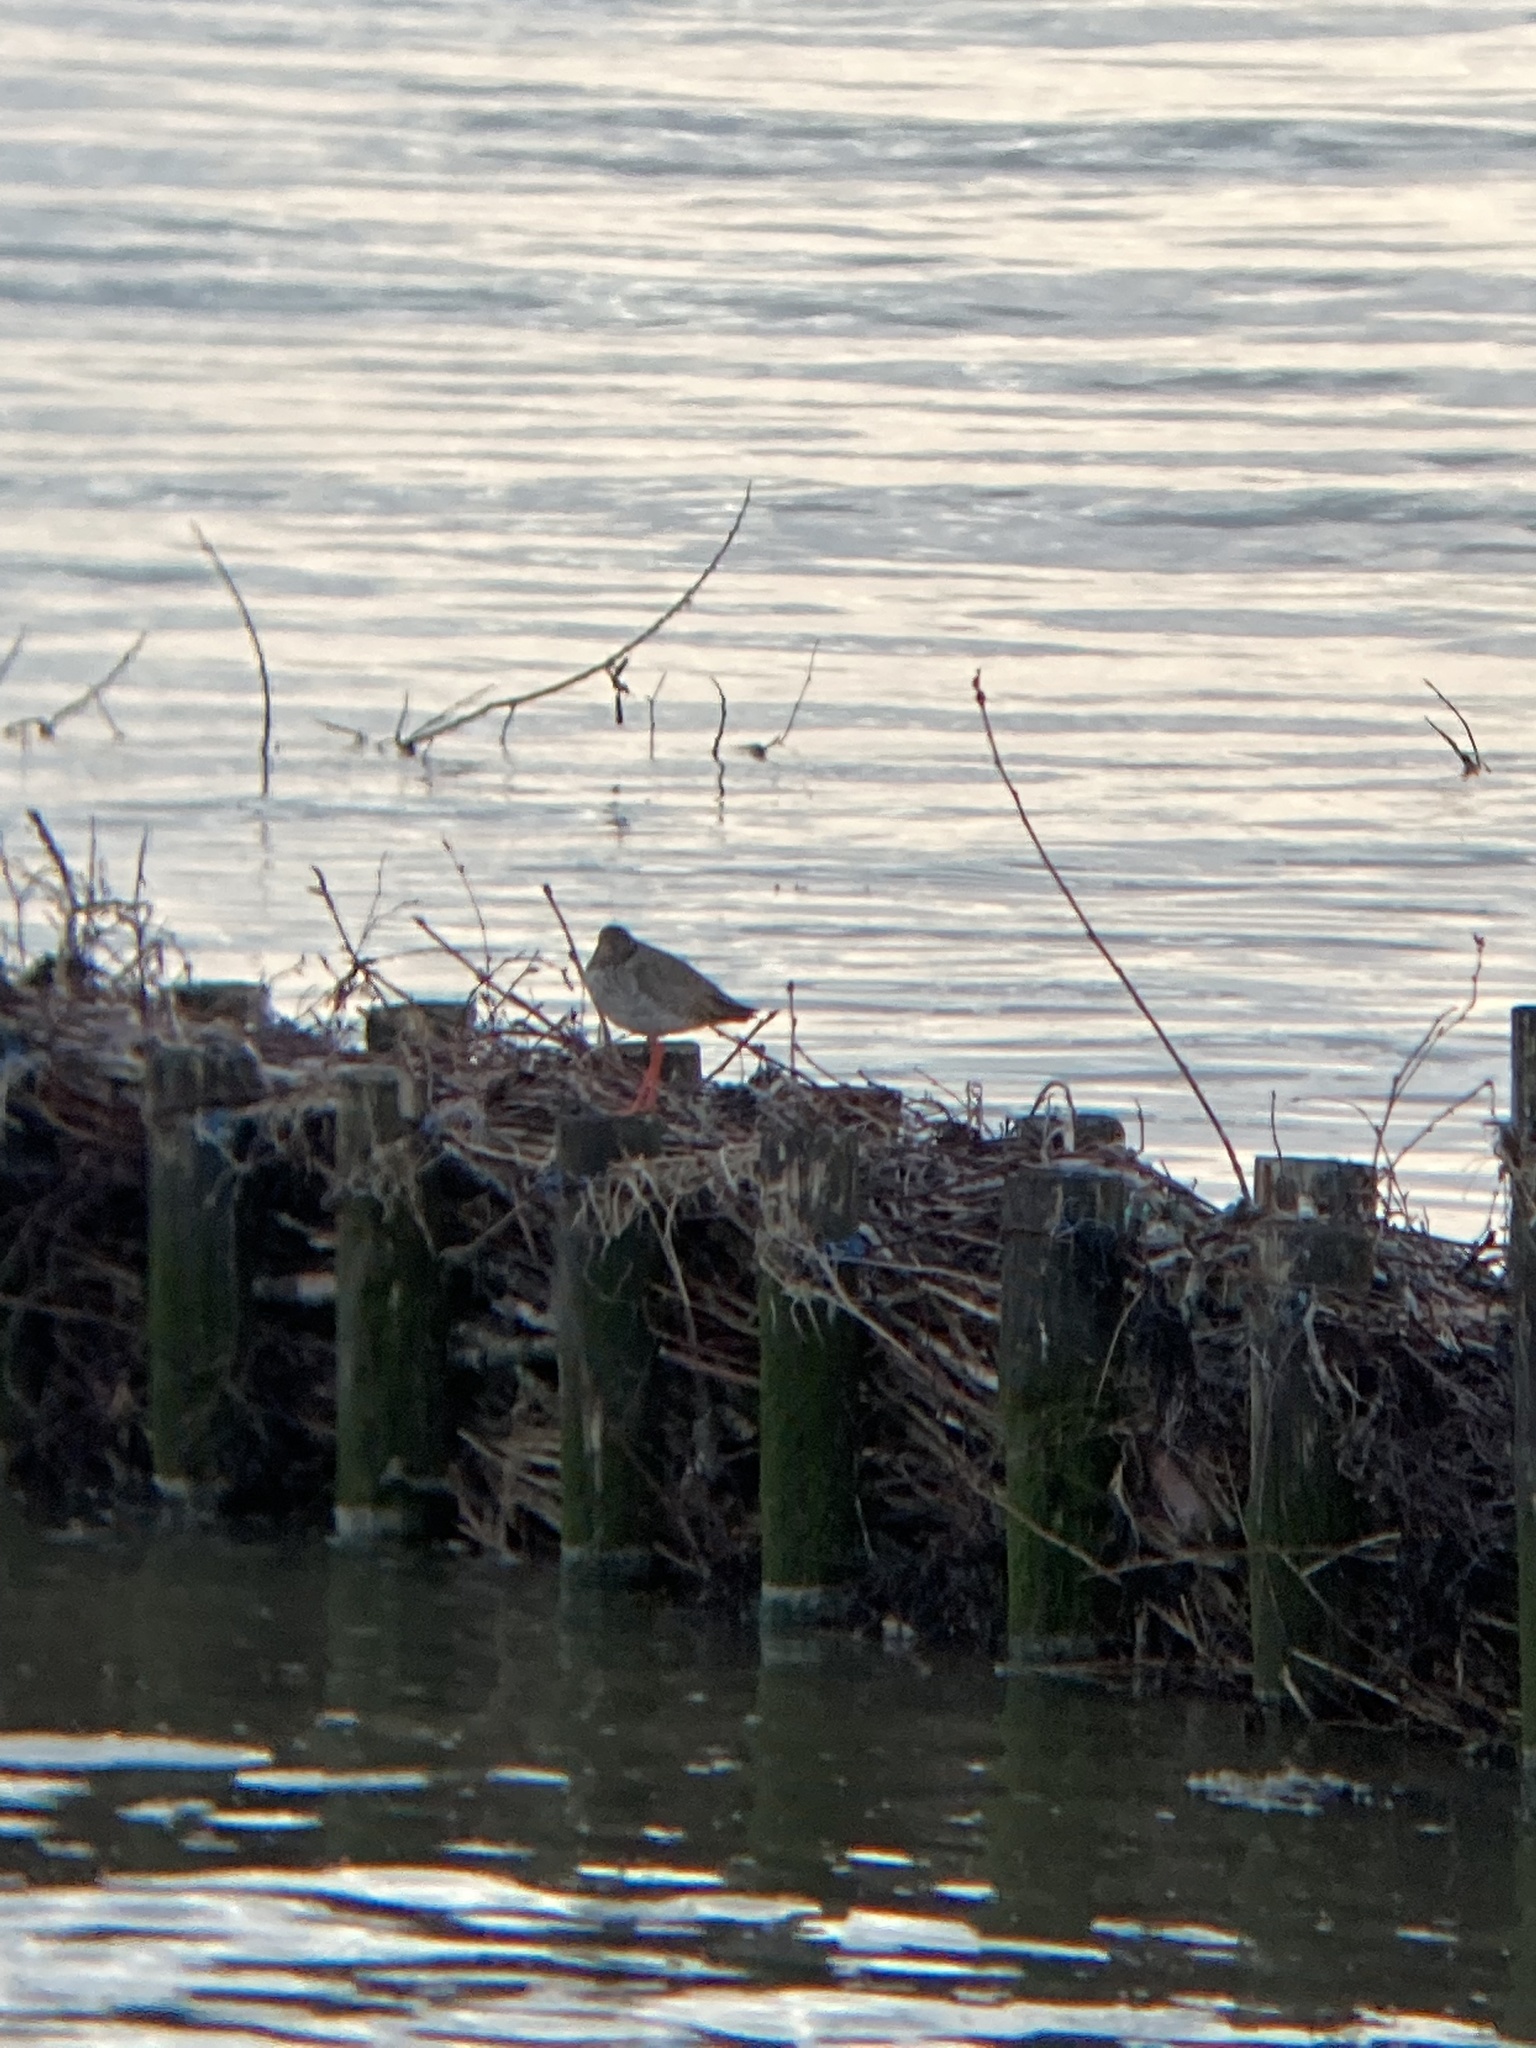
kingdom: Animalia
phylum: Chordata
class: Aves
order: Charadriiformes
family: Scolopacidae
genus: Tringa
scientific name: Tringa totanus
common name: Common redshank
